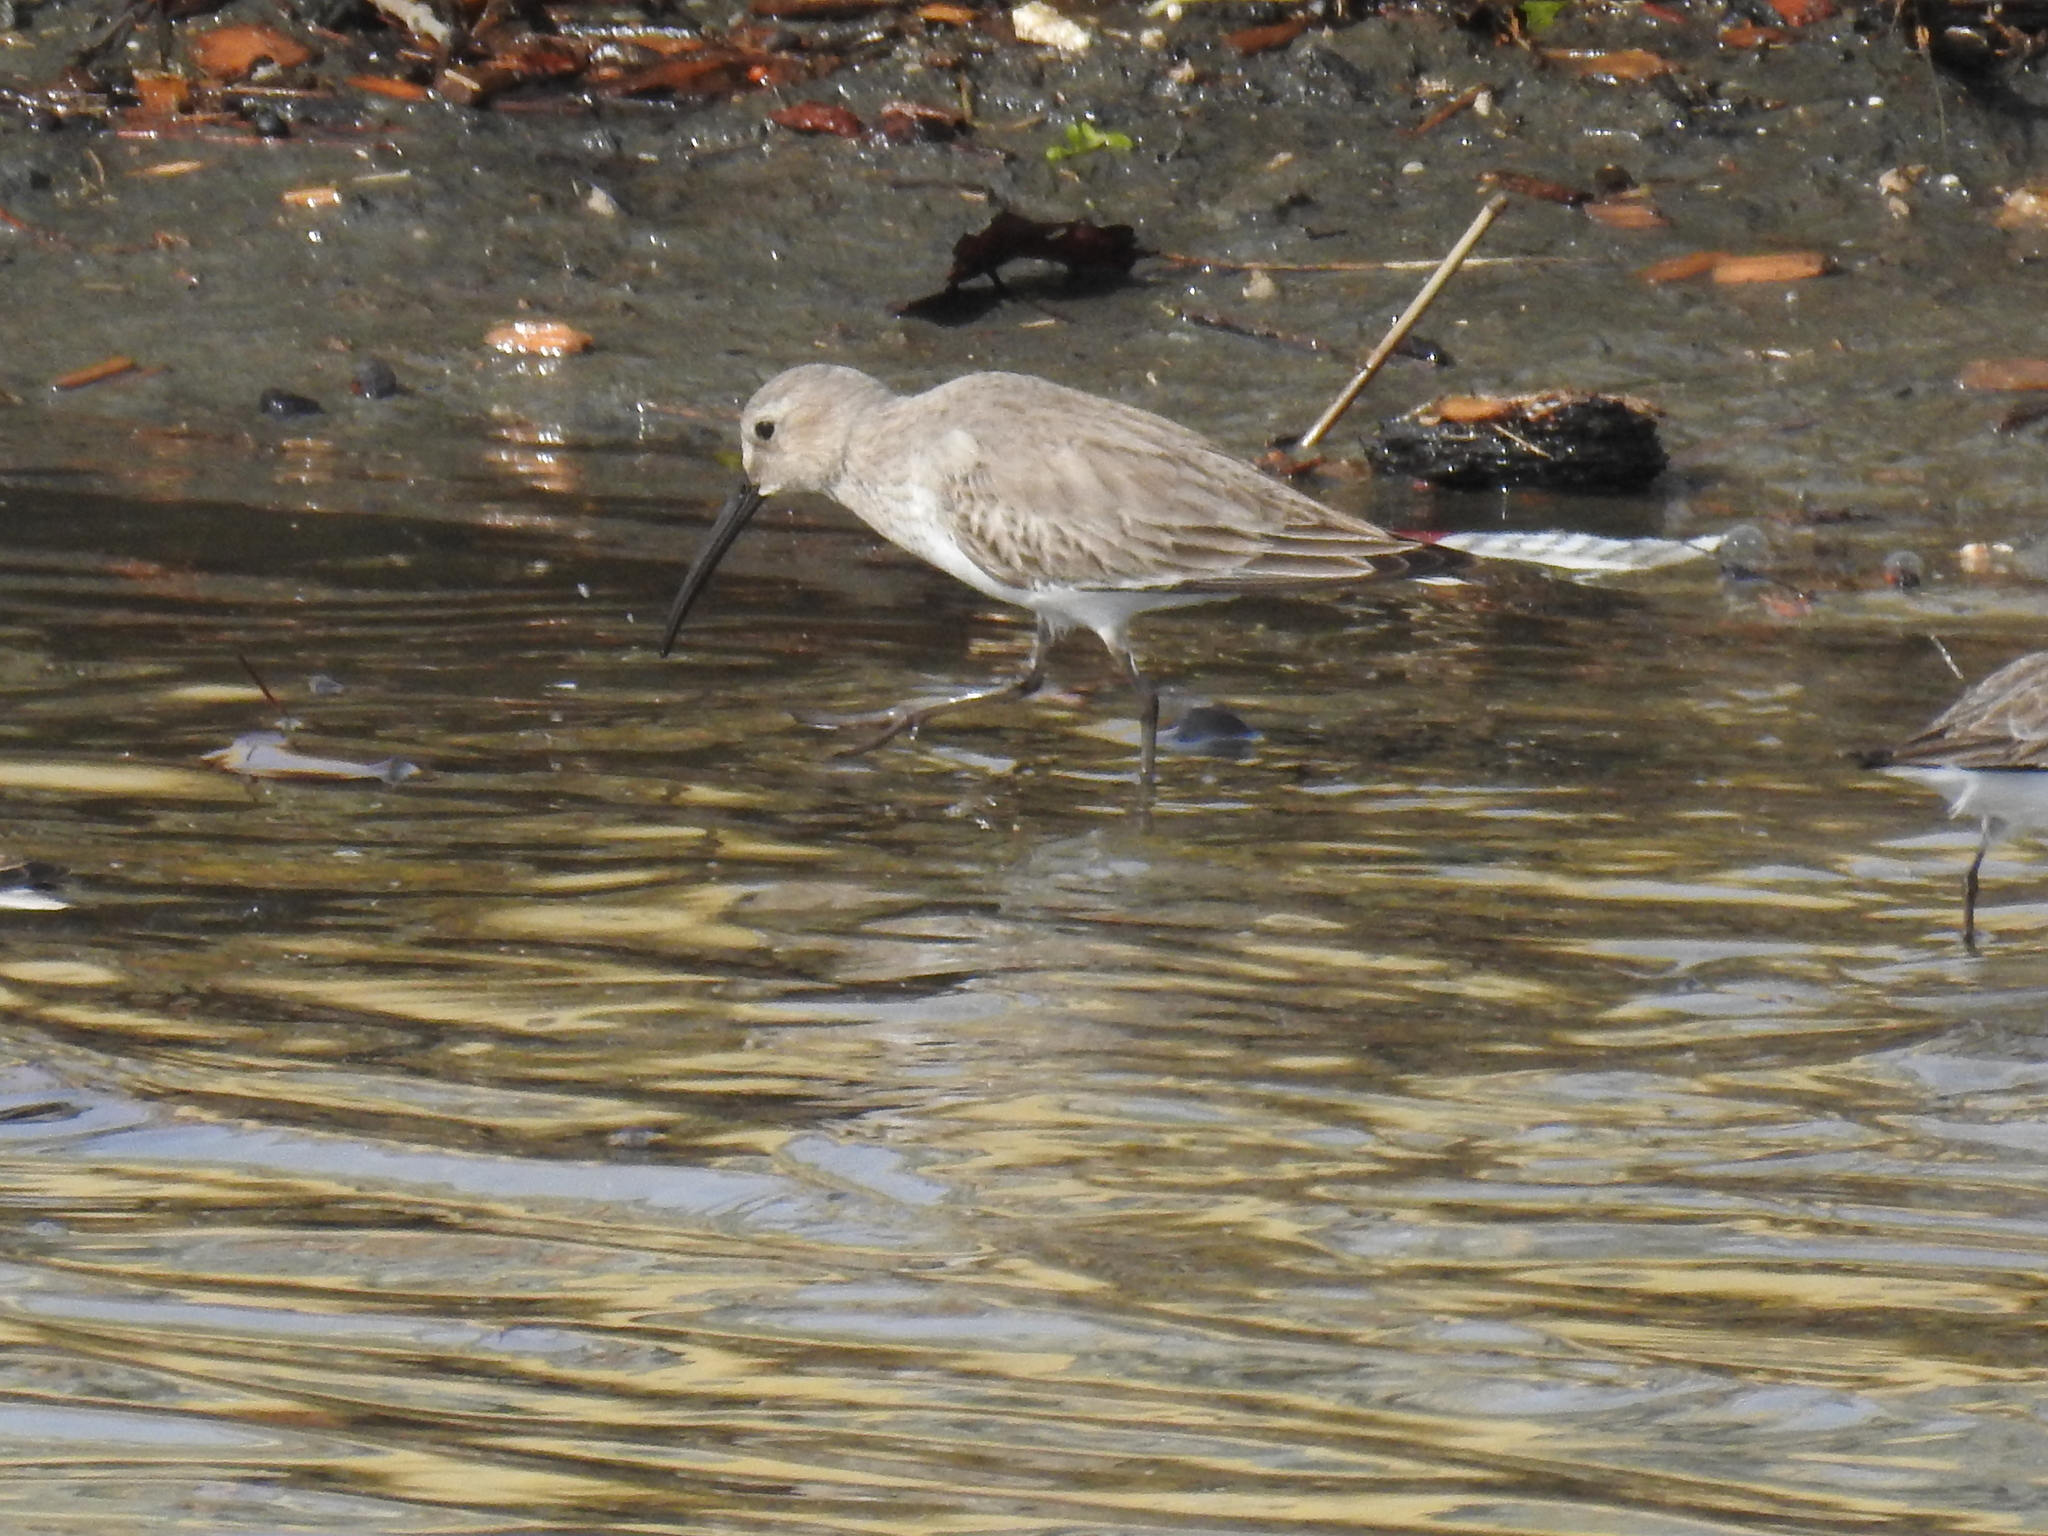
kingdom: Animalia
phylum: Chordata
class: Aves
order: Charadriiformes
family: Scolopacidae
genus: Calidris
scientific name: Calidris alpina
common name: Dunlin
